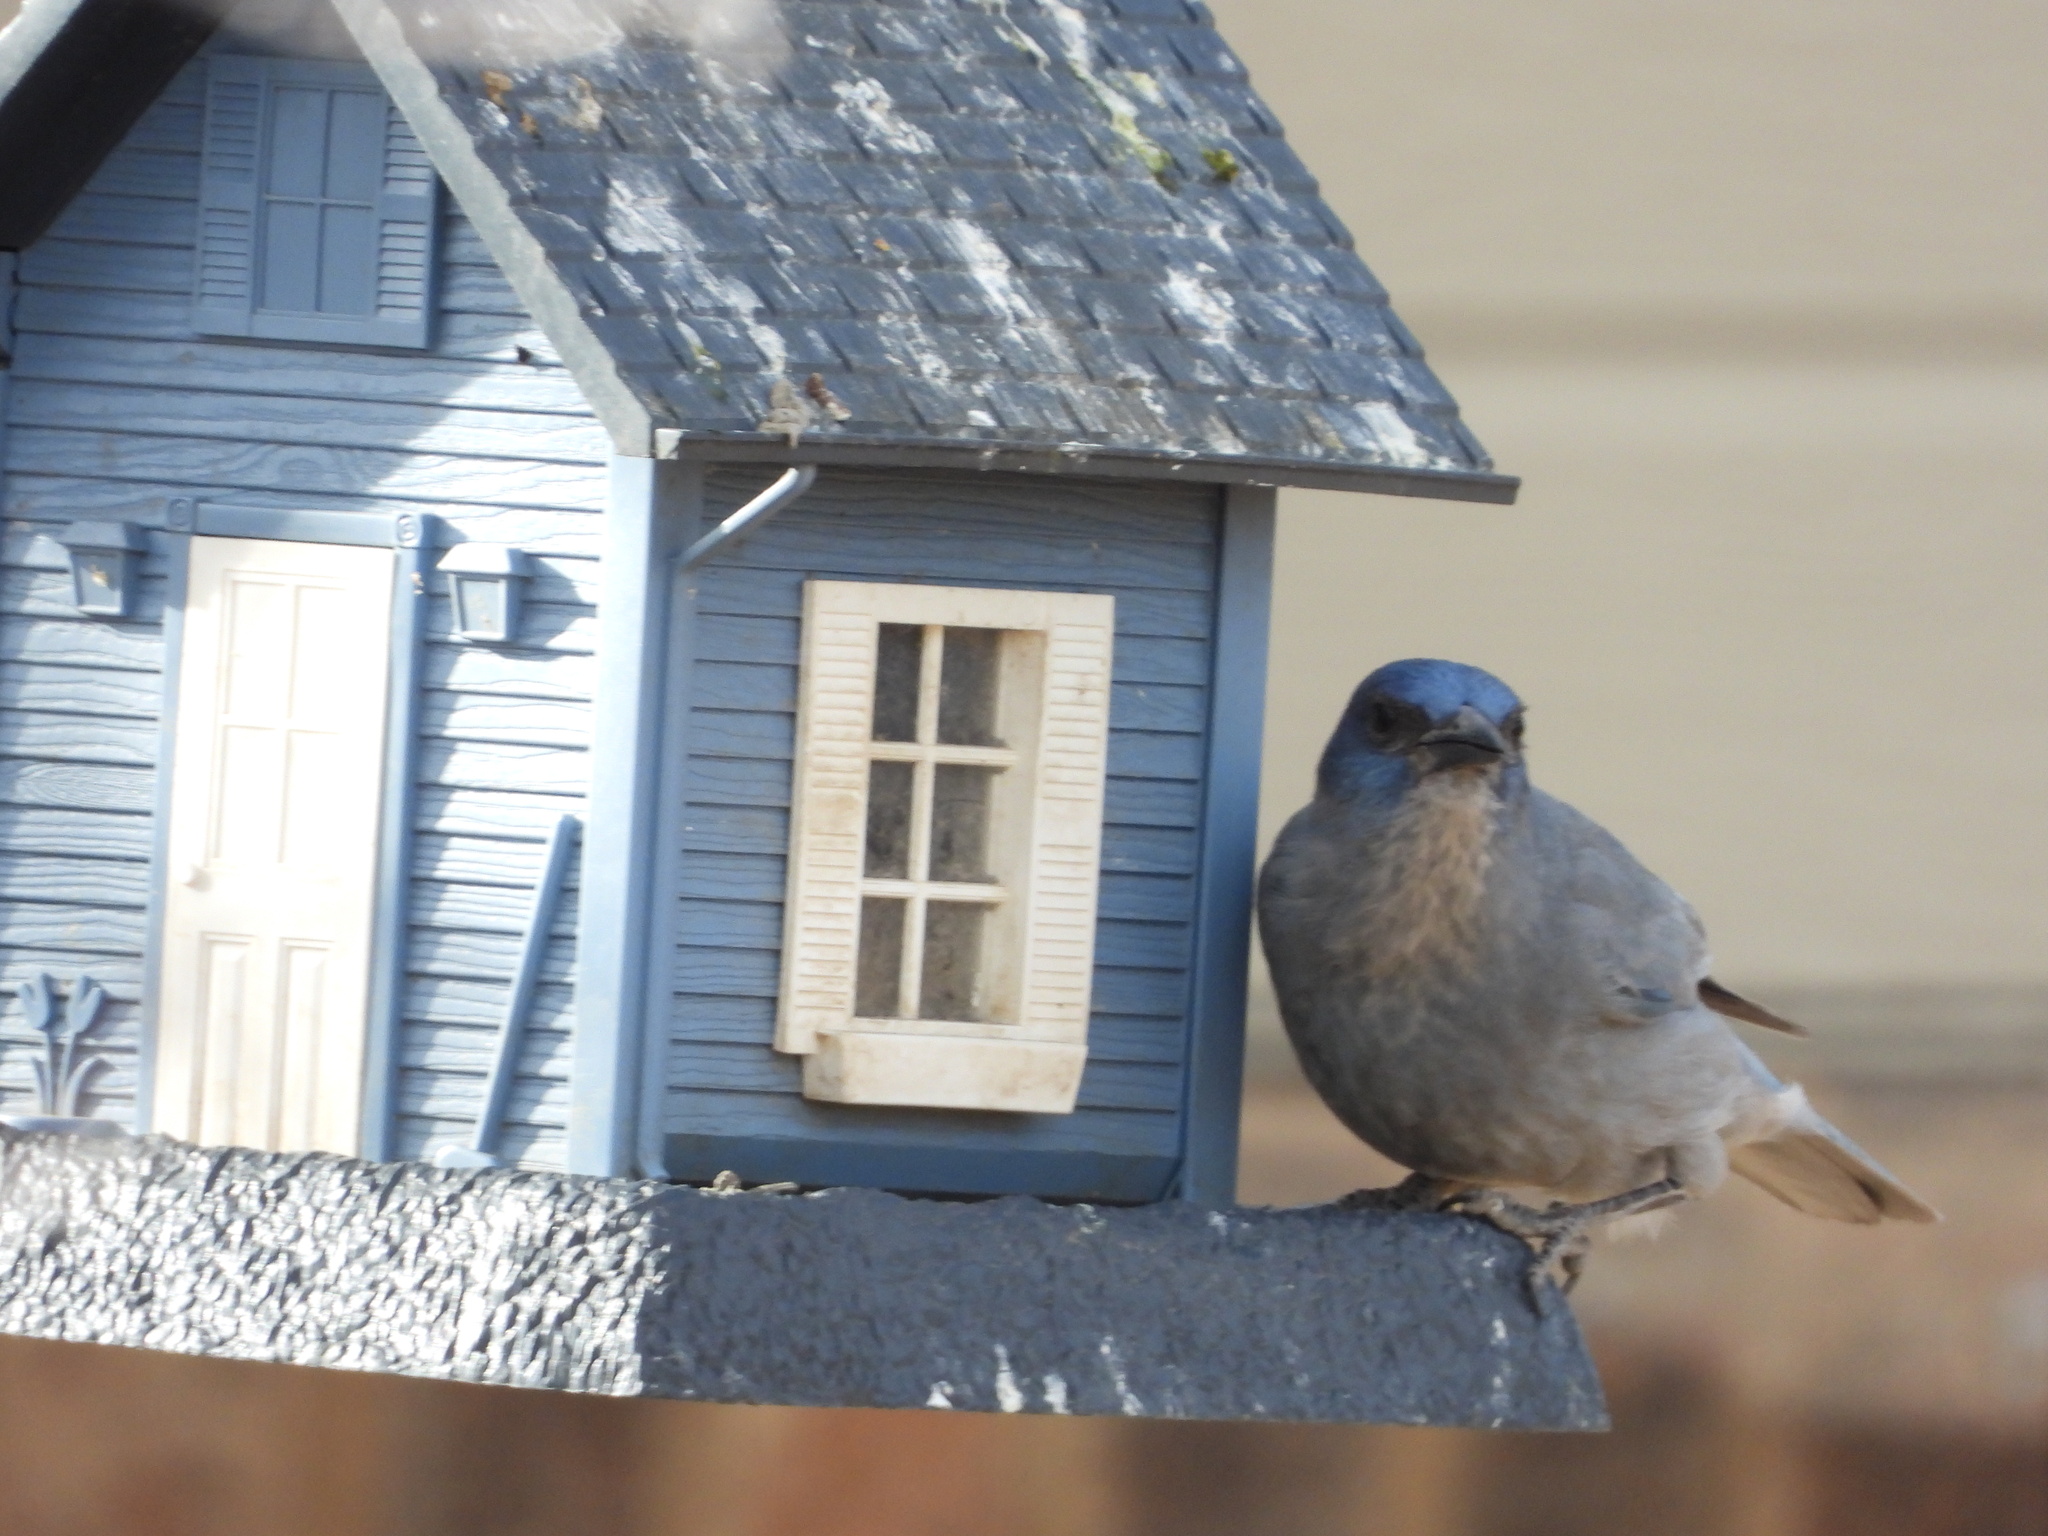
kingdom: Animalia
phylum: Chordata
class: Aves
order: Passeriformes
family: Corvidae
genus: Gymnorhinus
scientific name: Gymnorhinus cyanocephalus
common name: Pinyon jay
